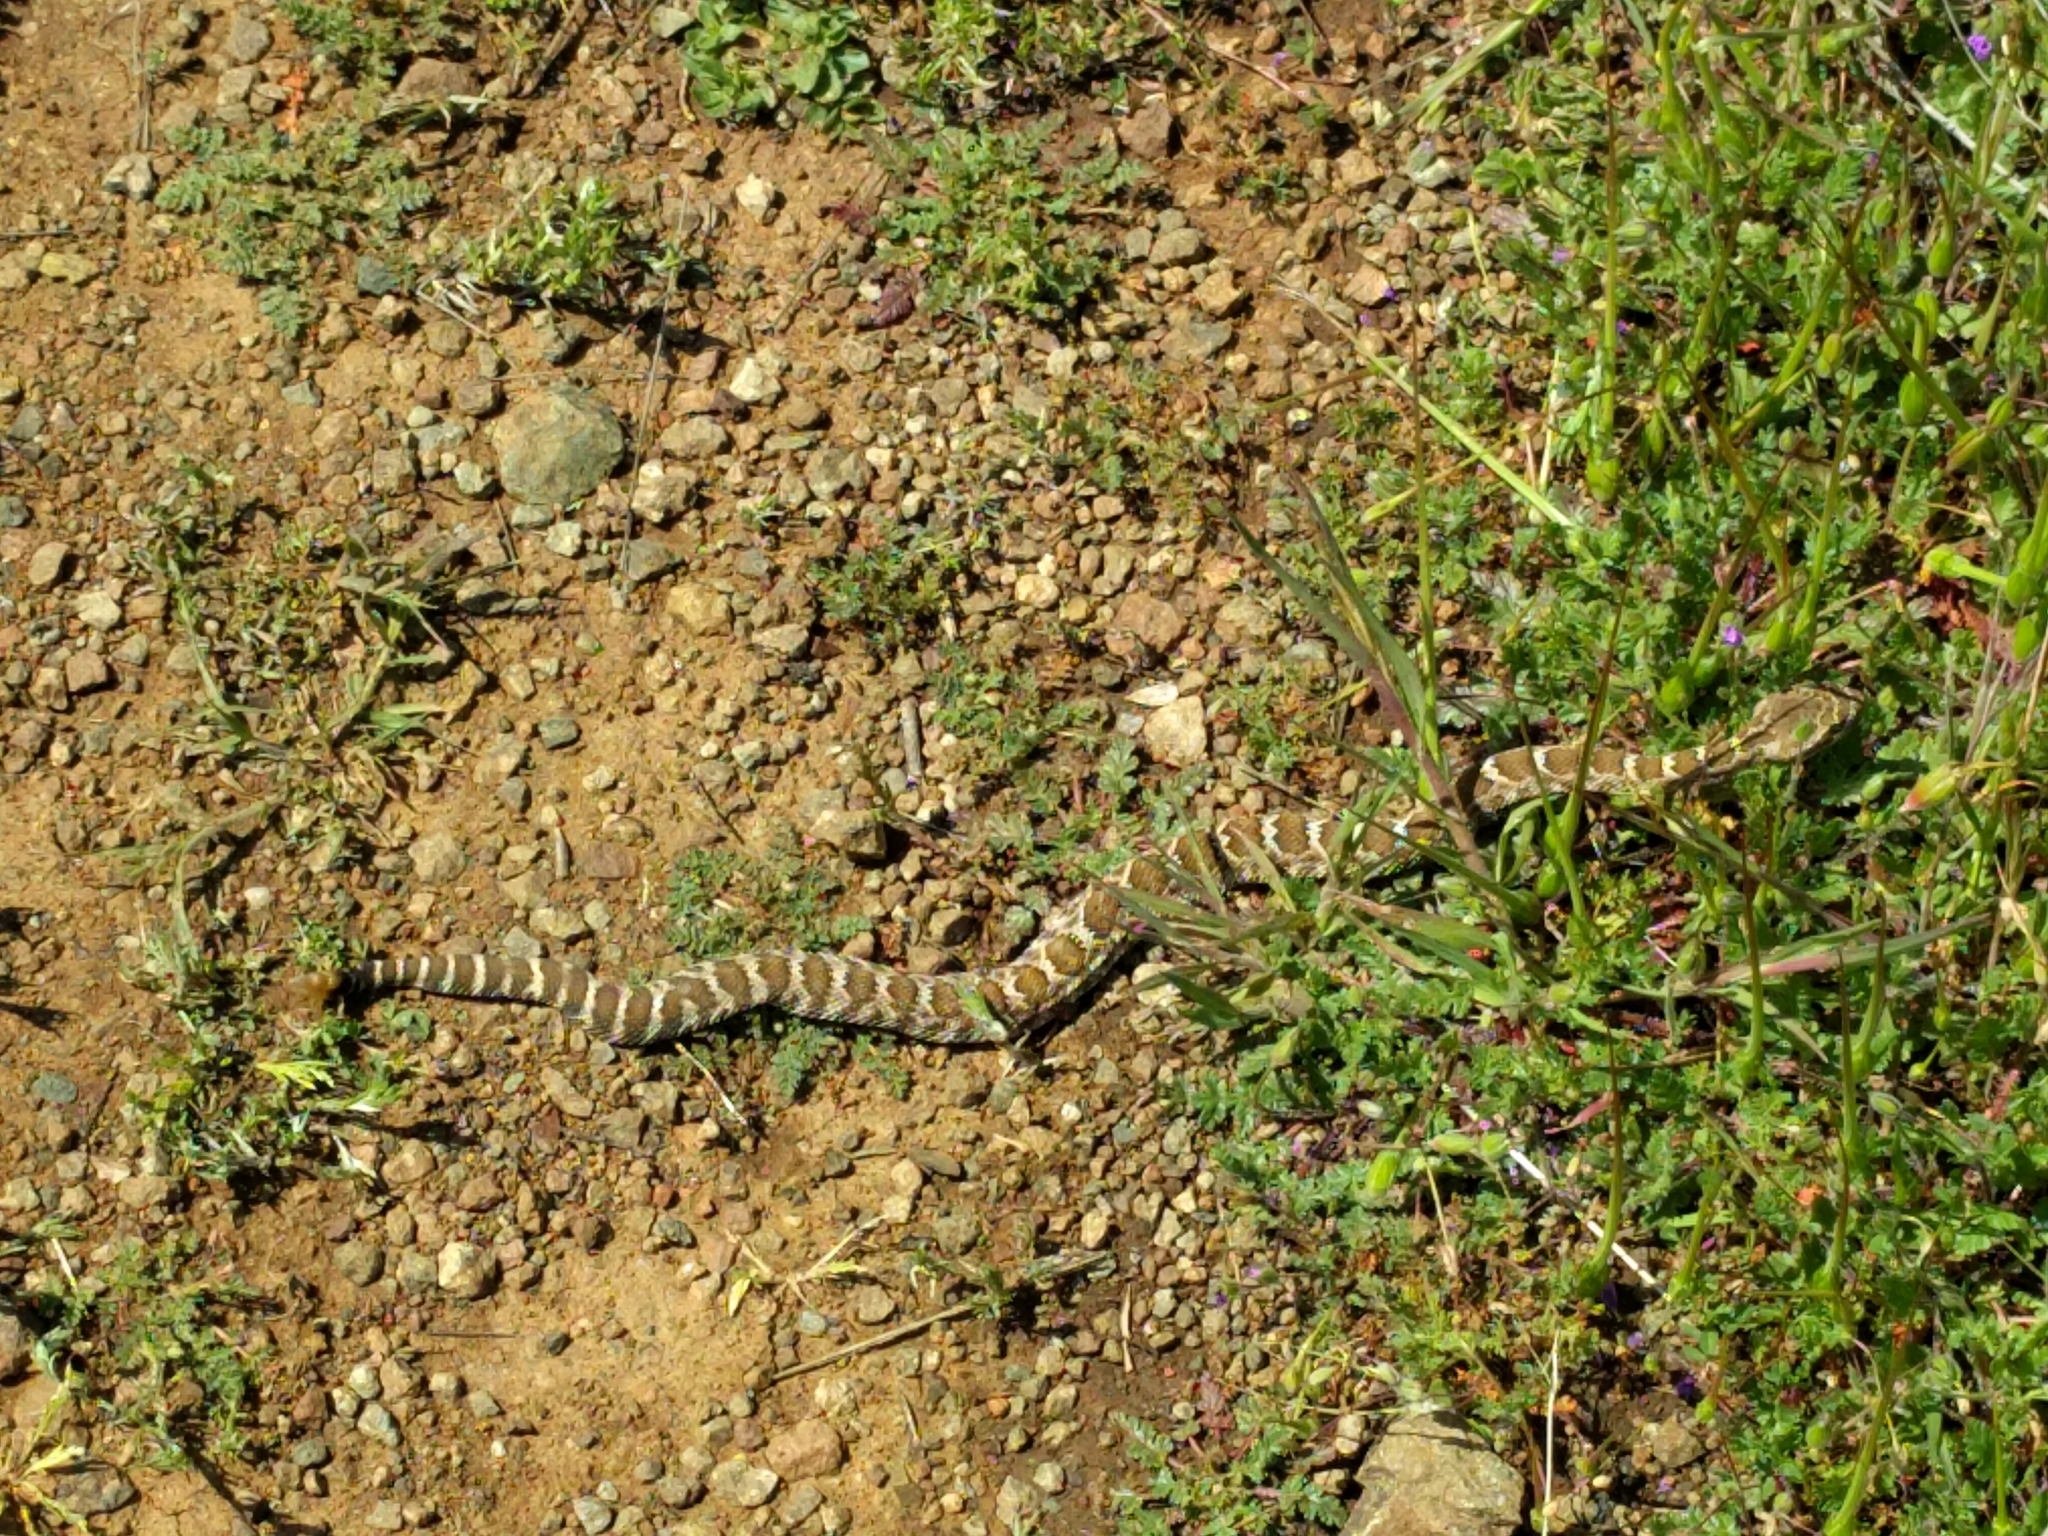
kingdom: Animalia
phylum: Chordata
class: Squamata
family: Viperidae
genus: Crotalus
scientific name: Crotalus oreganus
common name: Abyssus
